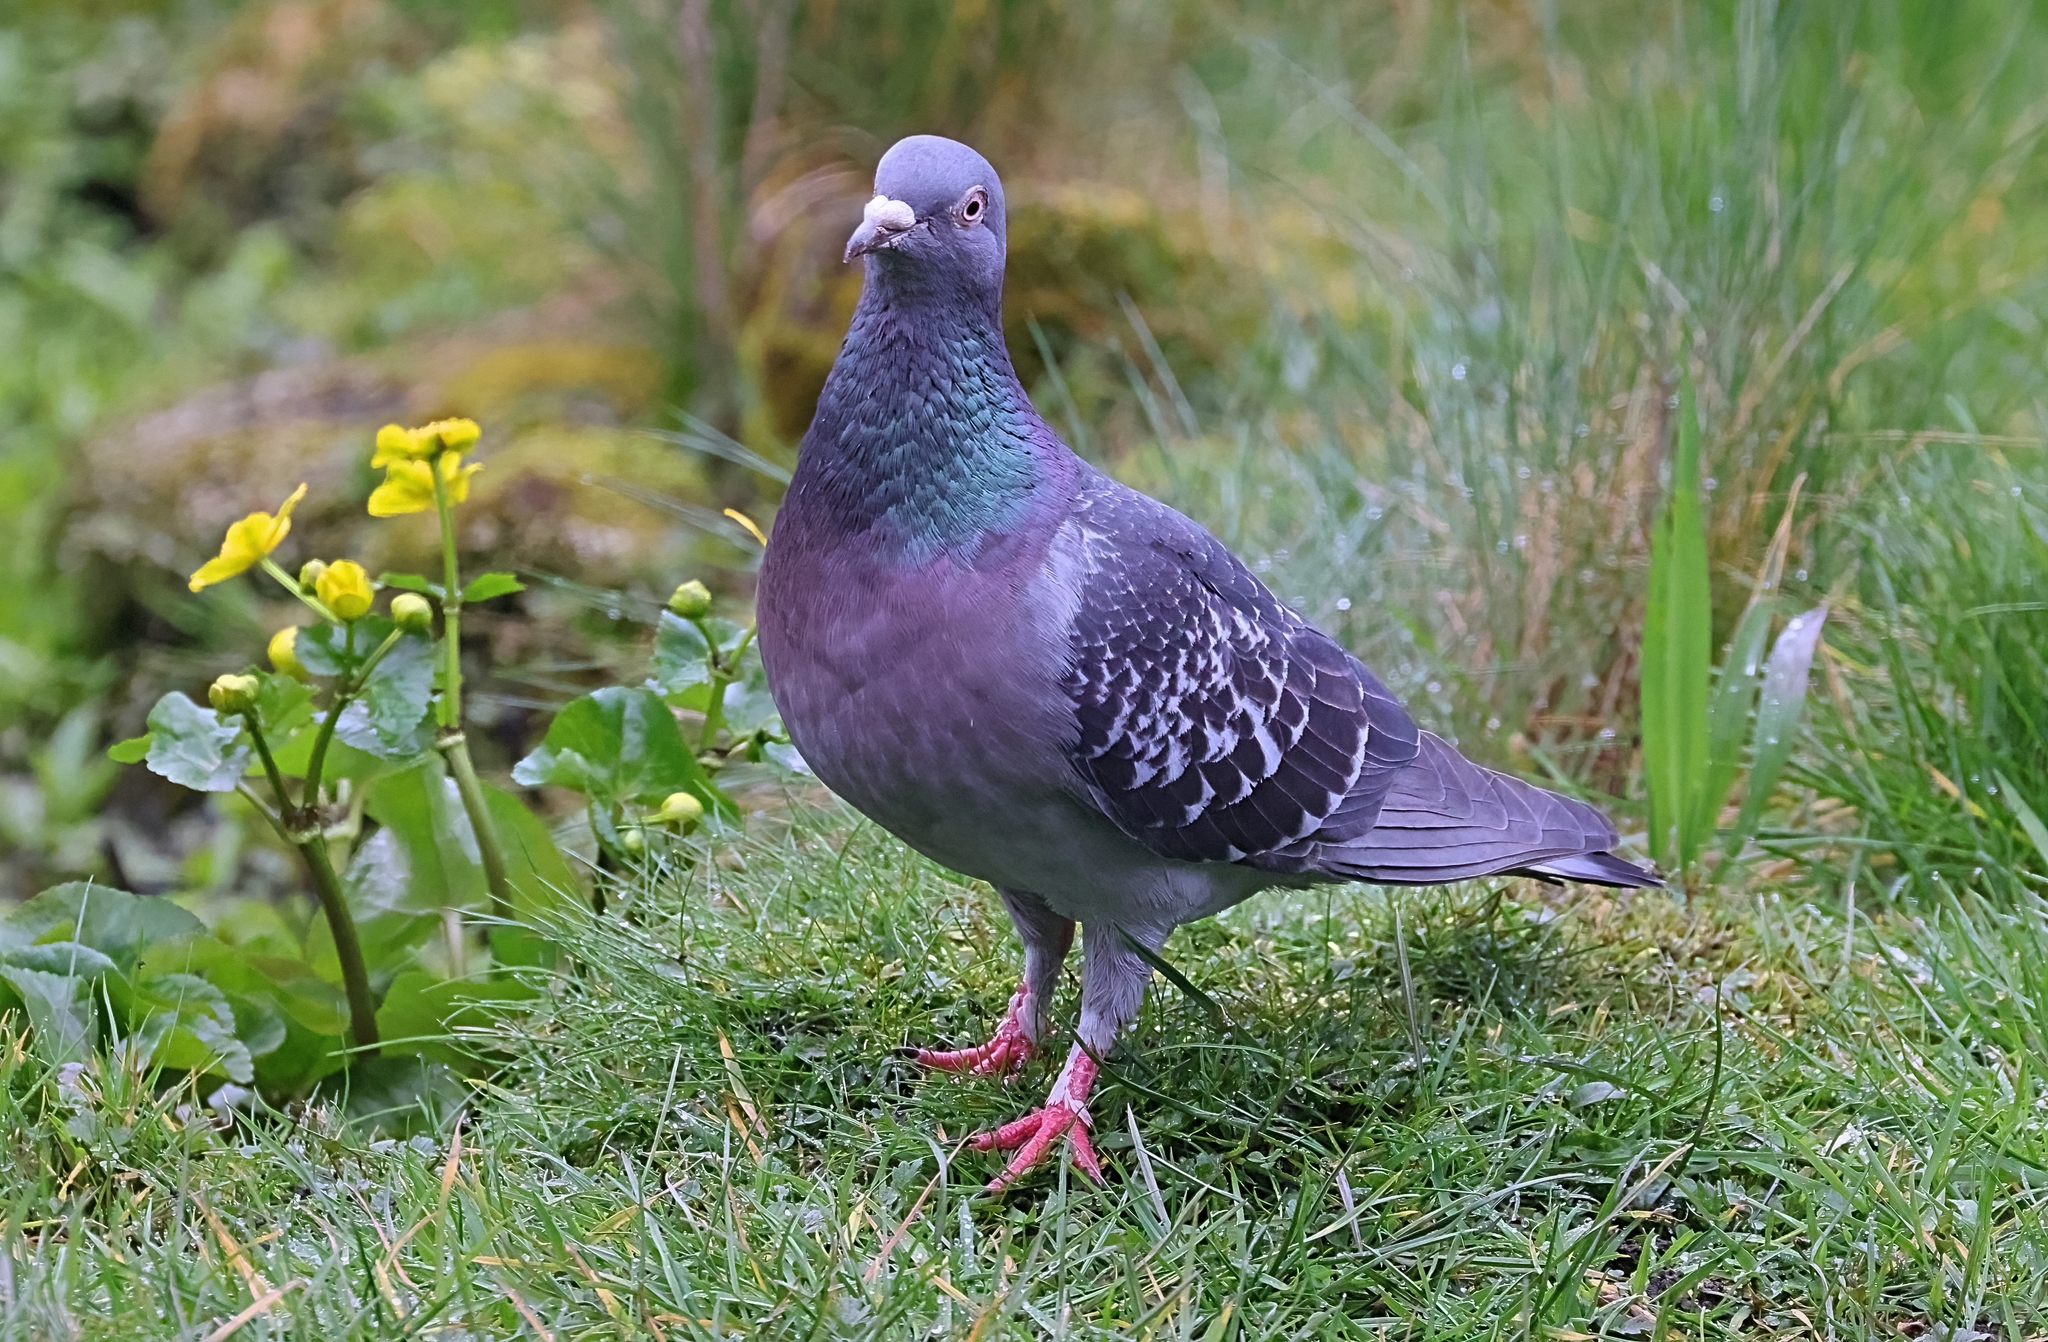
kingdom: Animalia
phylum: Chordata
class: Aves
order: Columbiformes
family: Columbidae
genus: Columba
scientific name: Columba livia
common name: Rock pigeon
